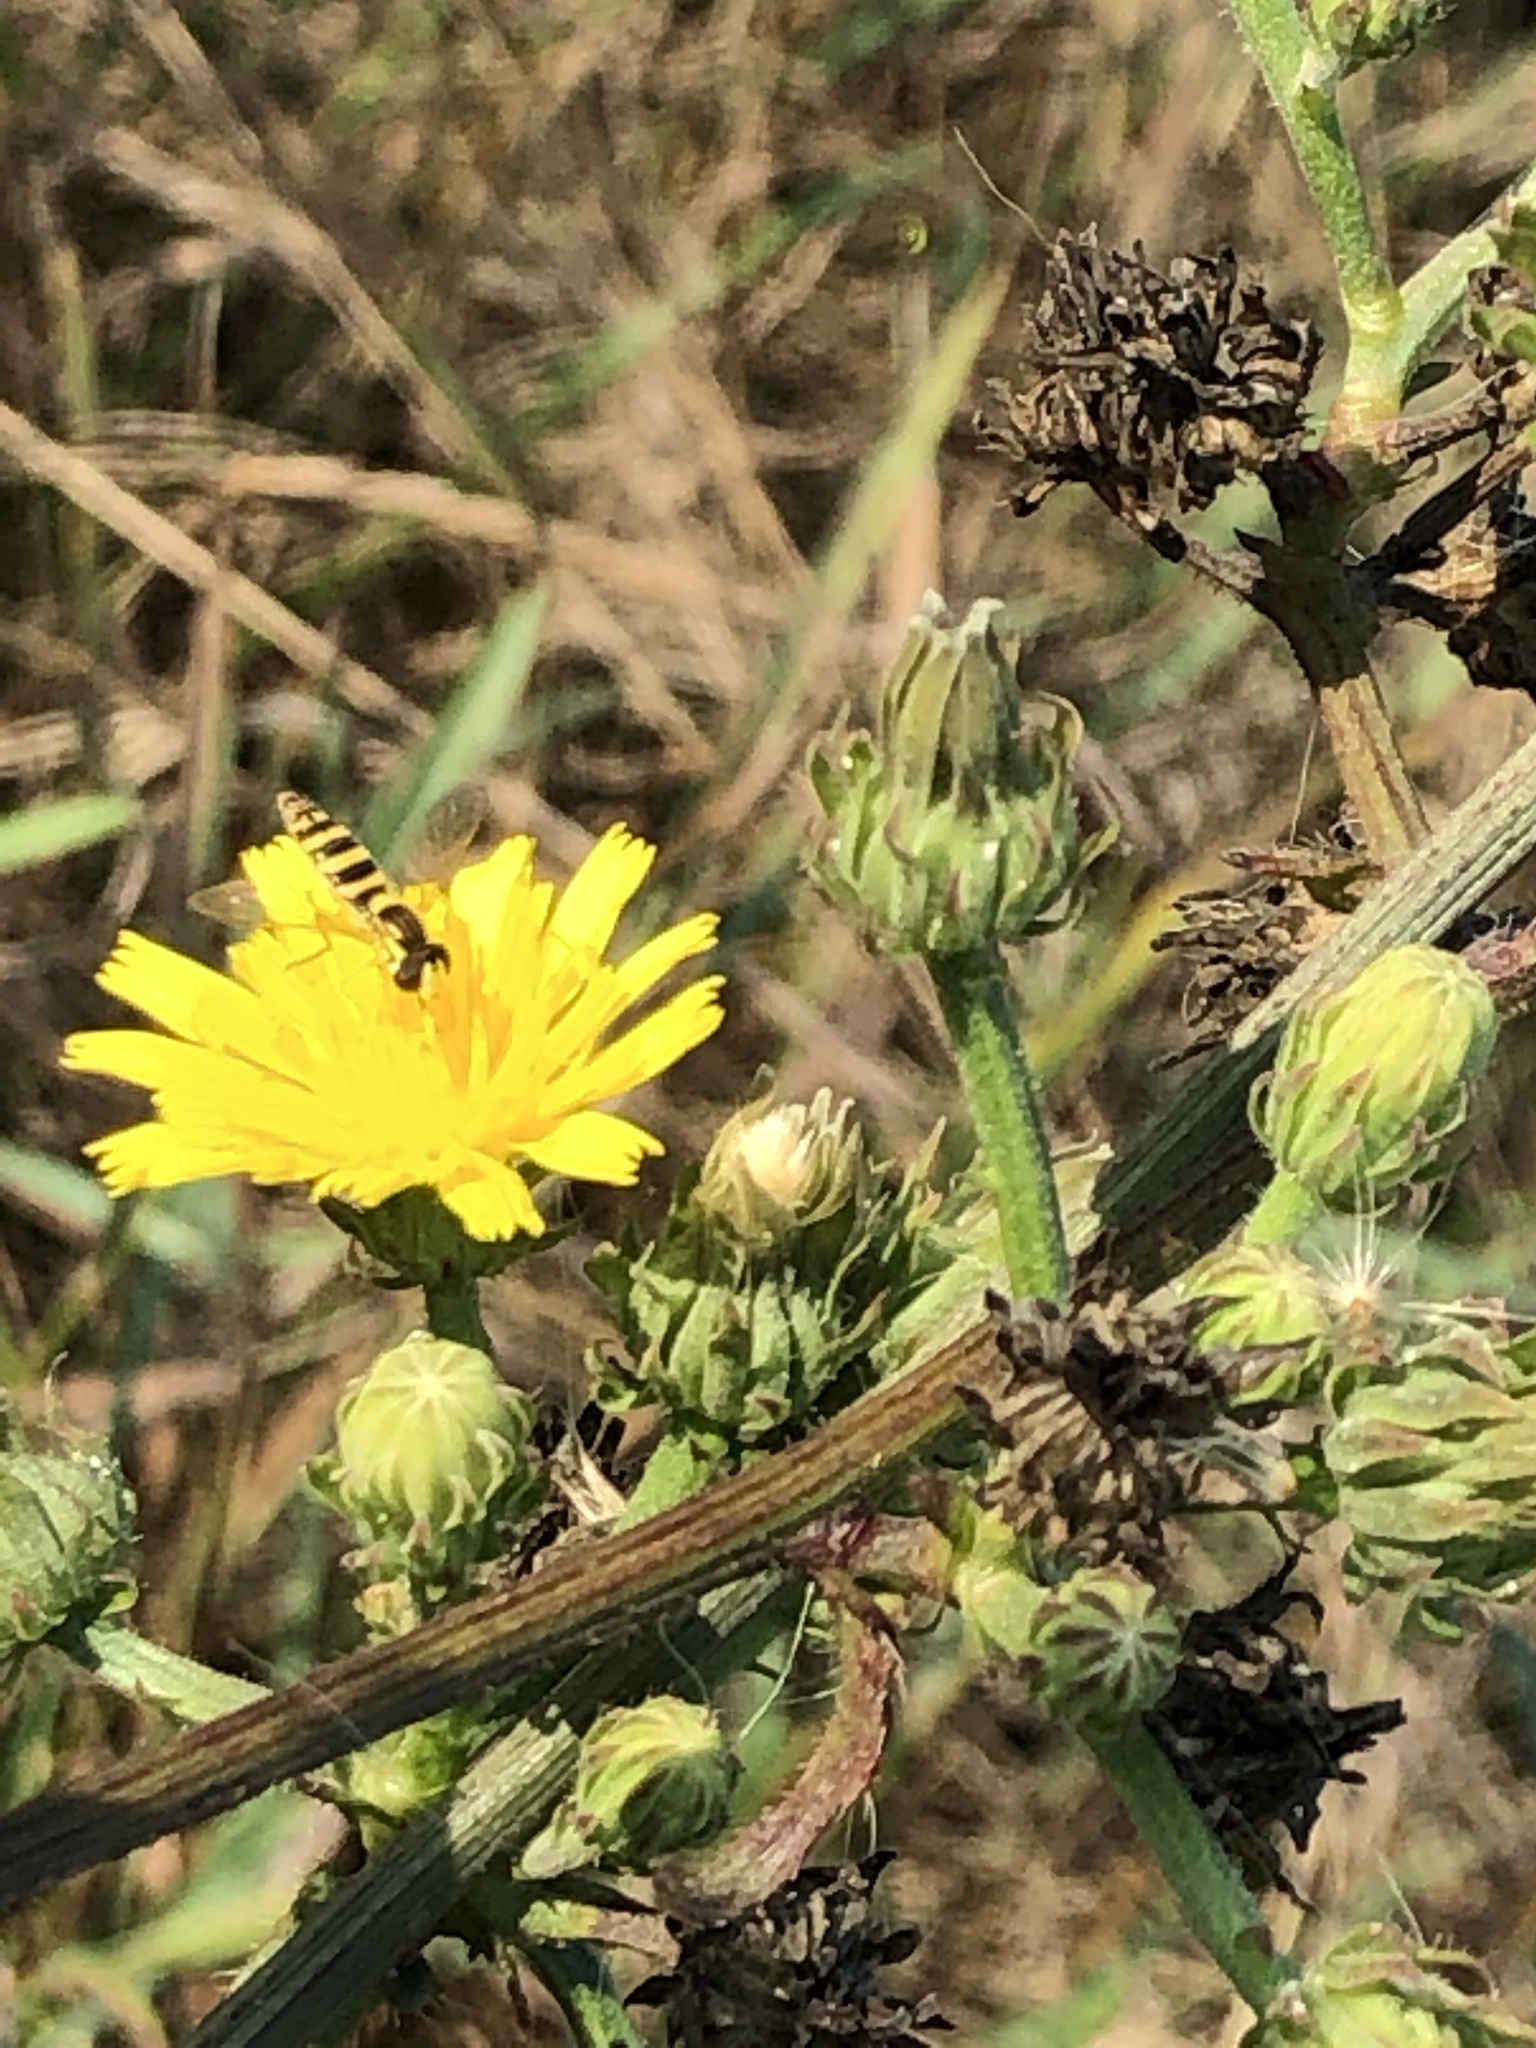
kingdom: Animalia
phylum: Arthropoda
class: Insecta
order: Diptera
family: Syrphidae
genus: Sphaerophoria
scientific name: Sphaerophoria scripta
